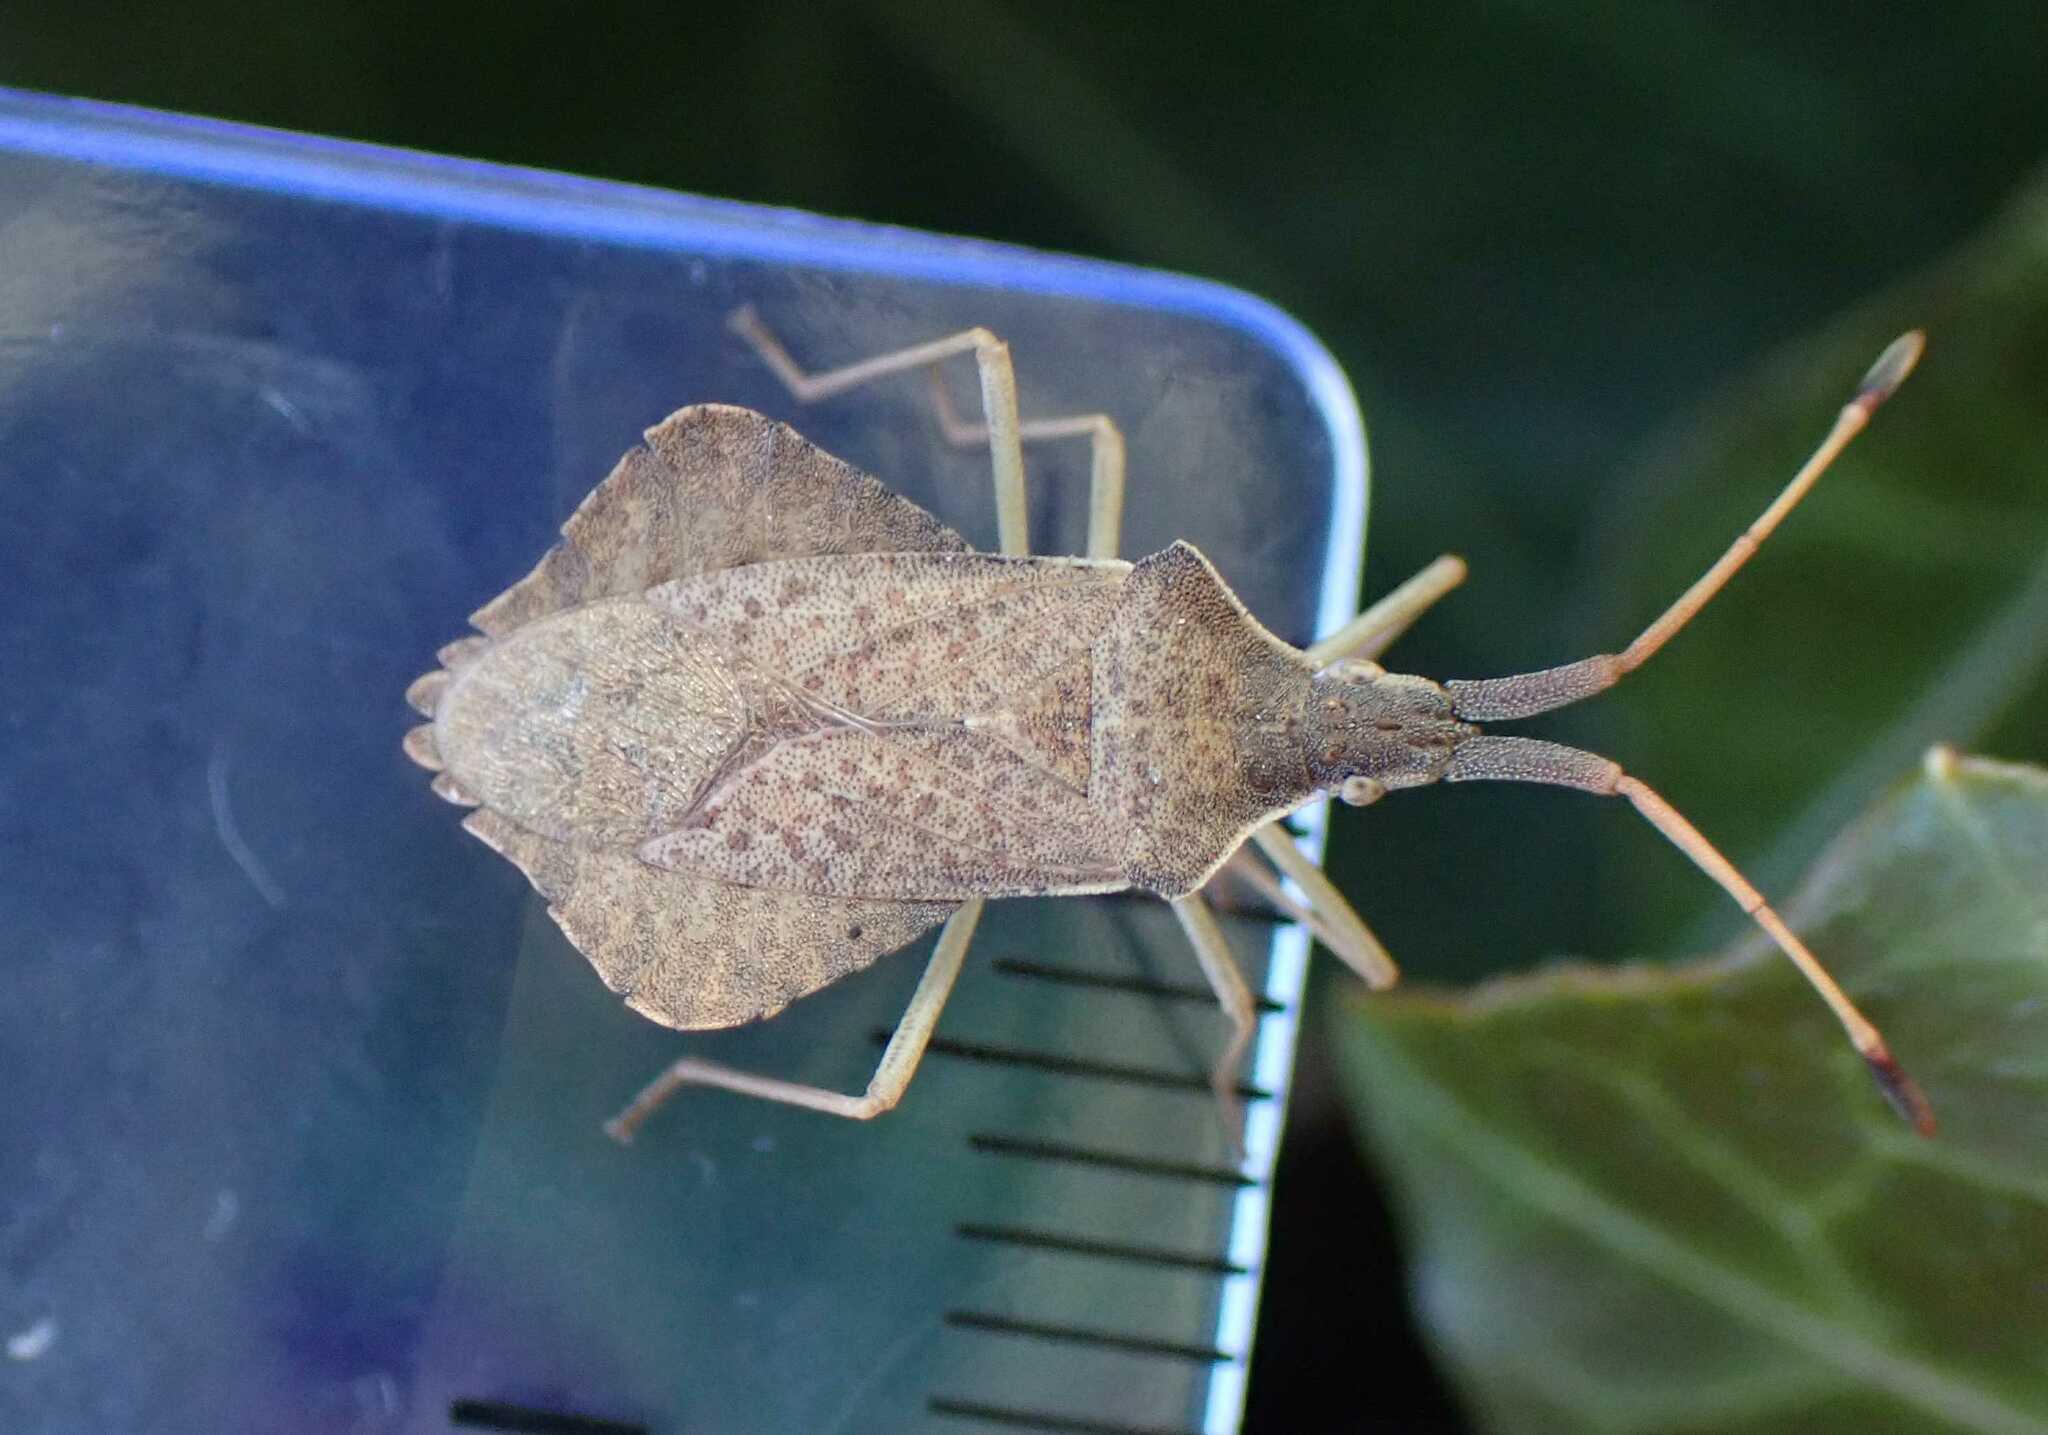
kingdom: Animalia
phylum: Arthropoda
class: Insecta
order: Hemiptera
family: Coreidae
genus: Syromastus
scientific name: Syromastus rhombeus
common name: Rhombic leatherbug
